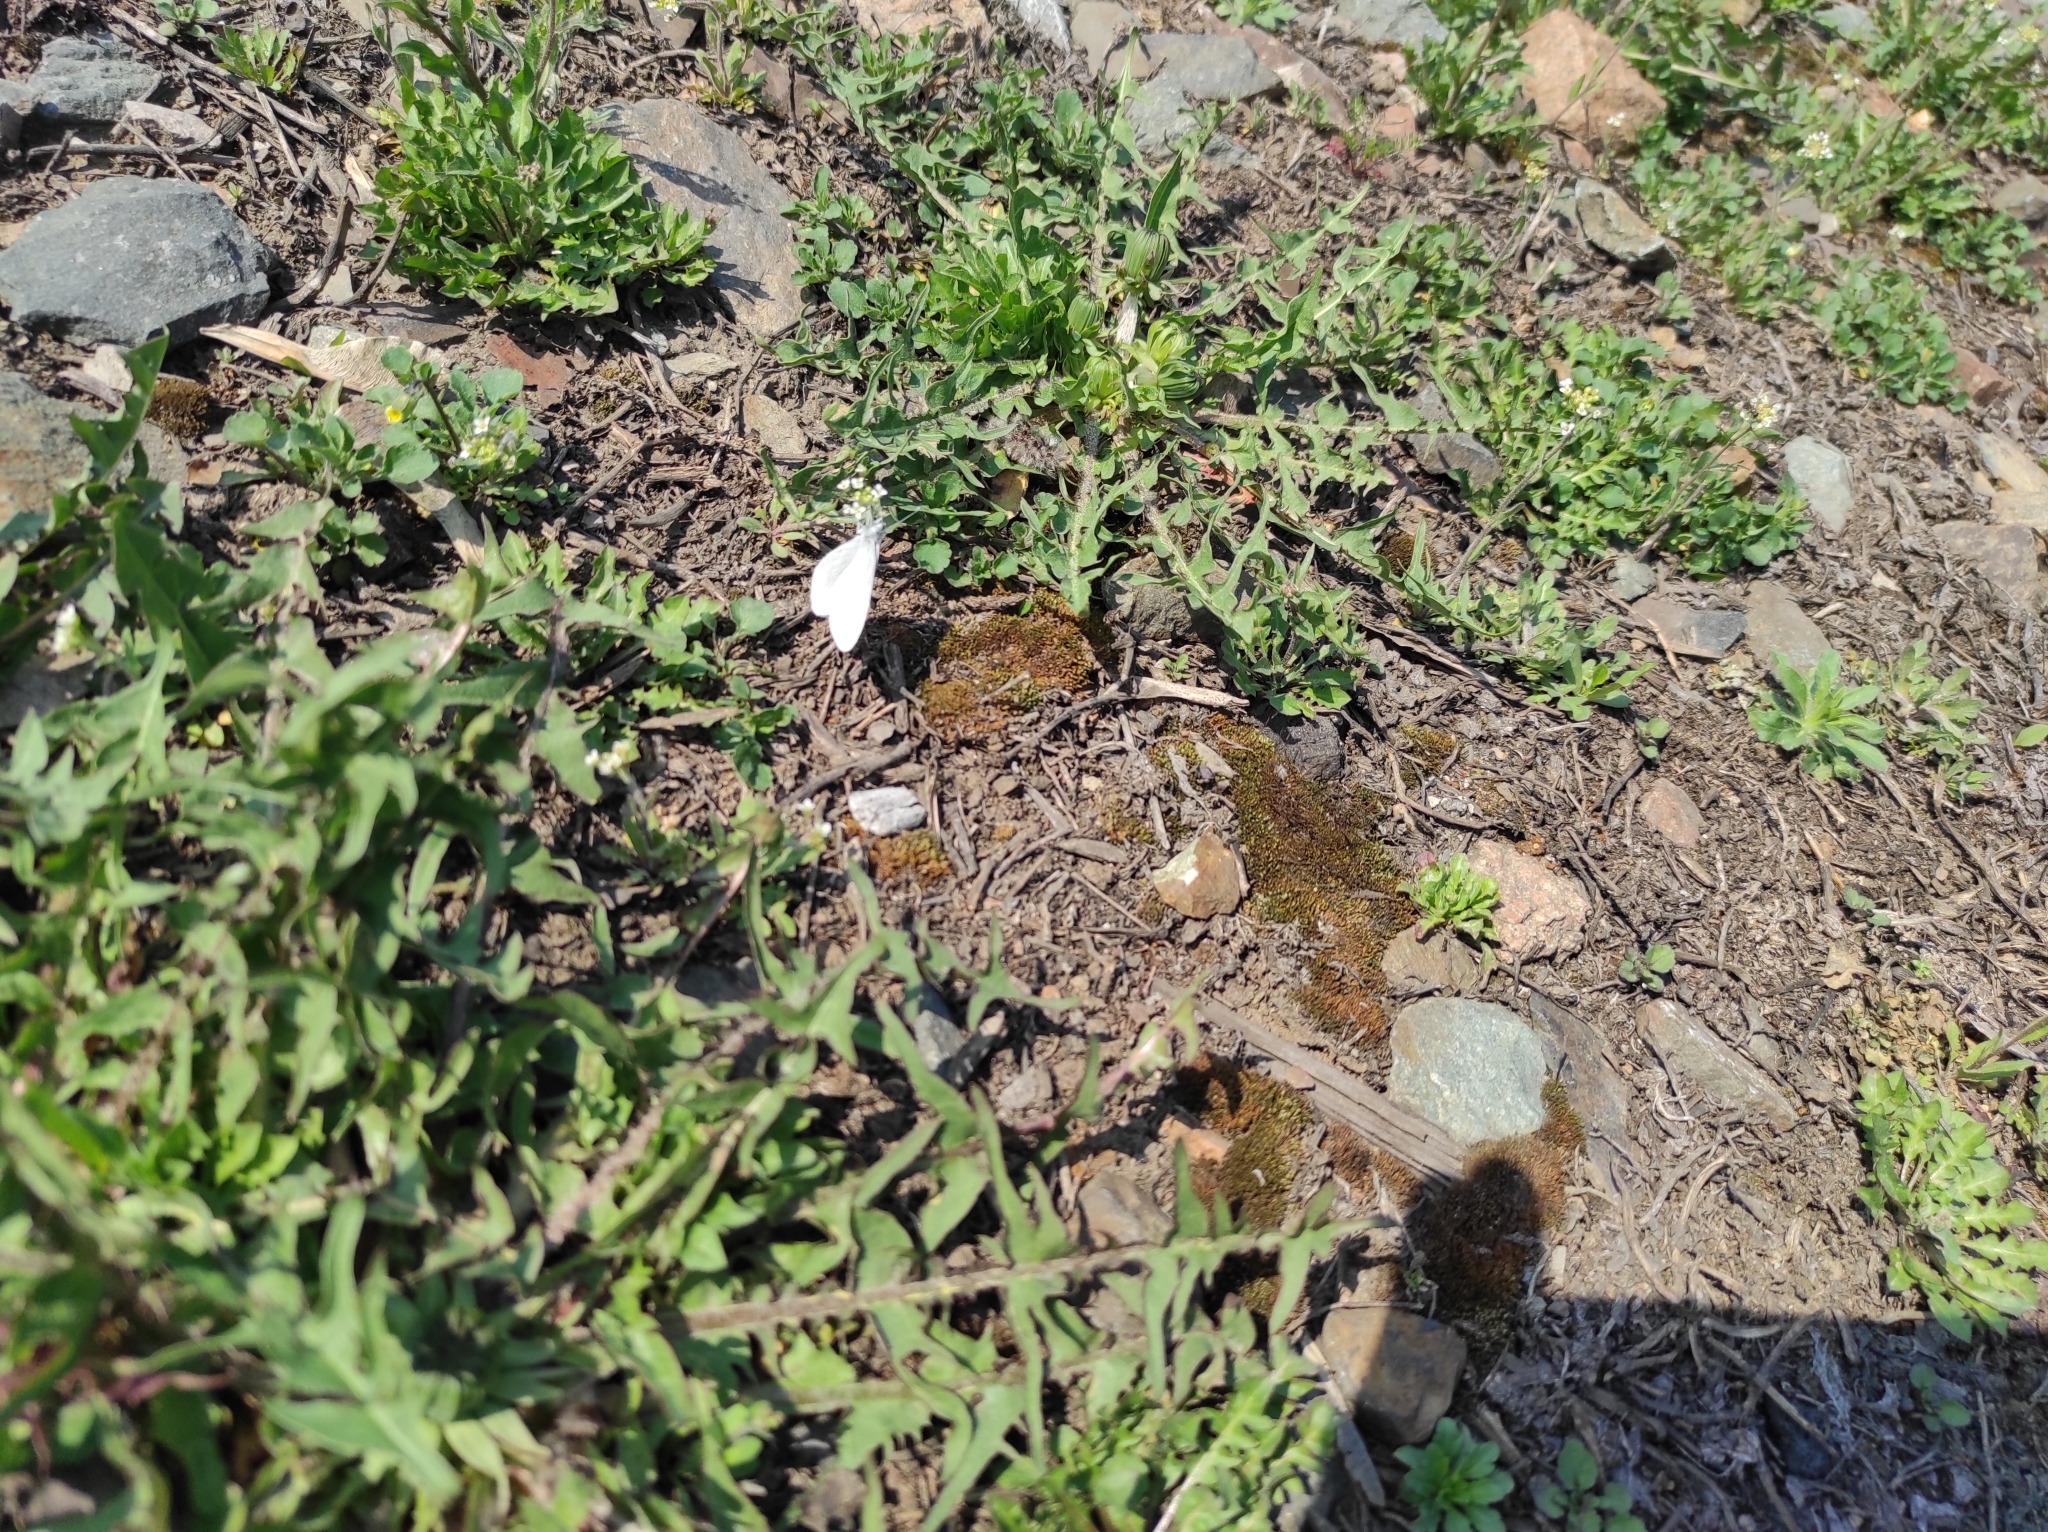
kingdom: Plantae
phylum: Tracheophyta
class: Magnoliopsida
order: Asterales
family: Asteraceae
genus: Taraxacum
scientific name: Taraxacum officinale
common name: Common dandelion
